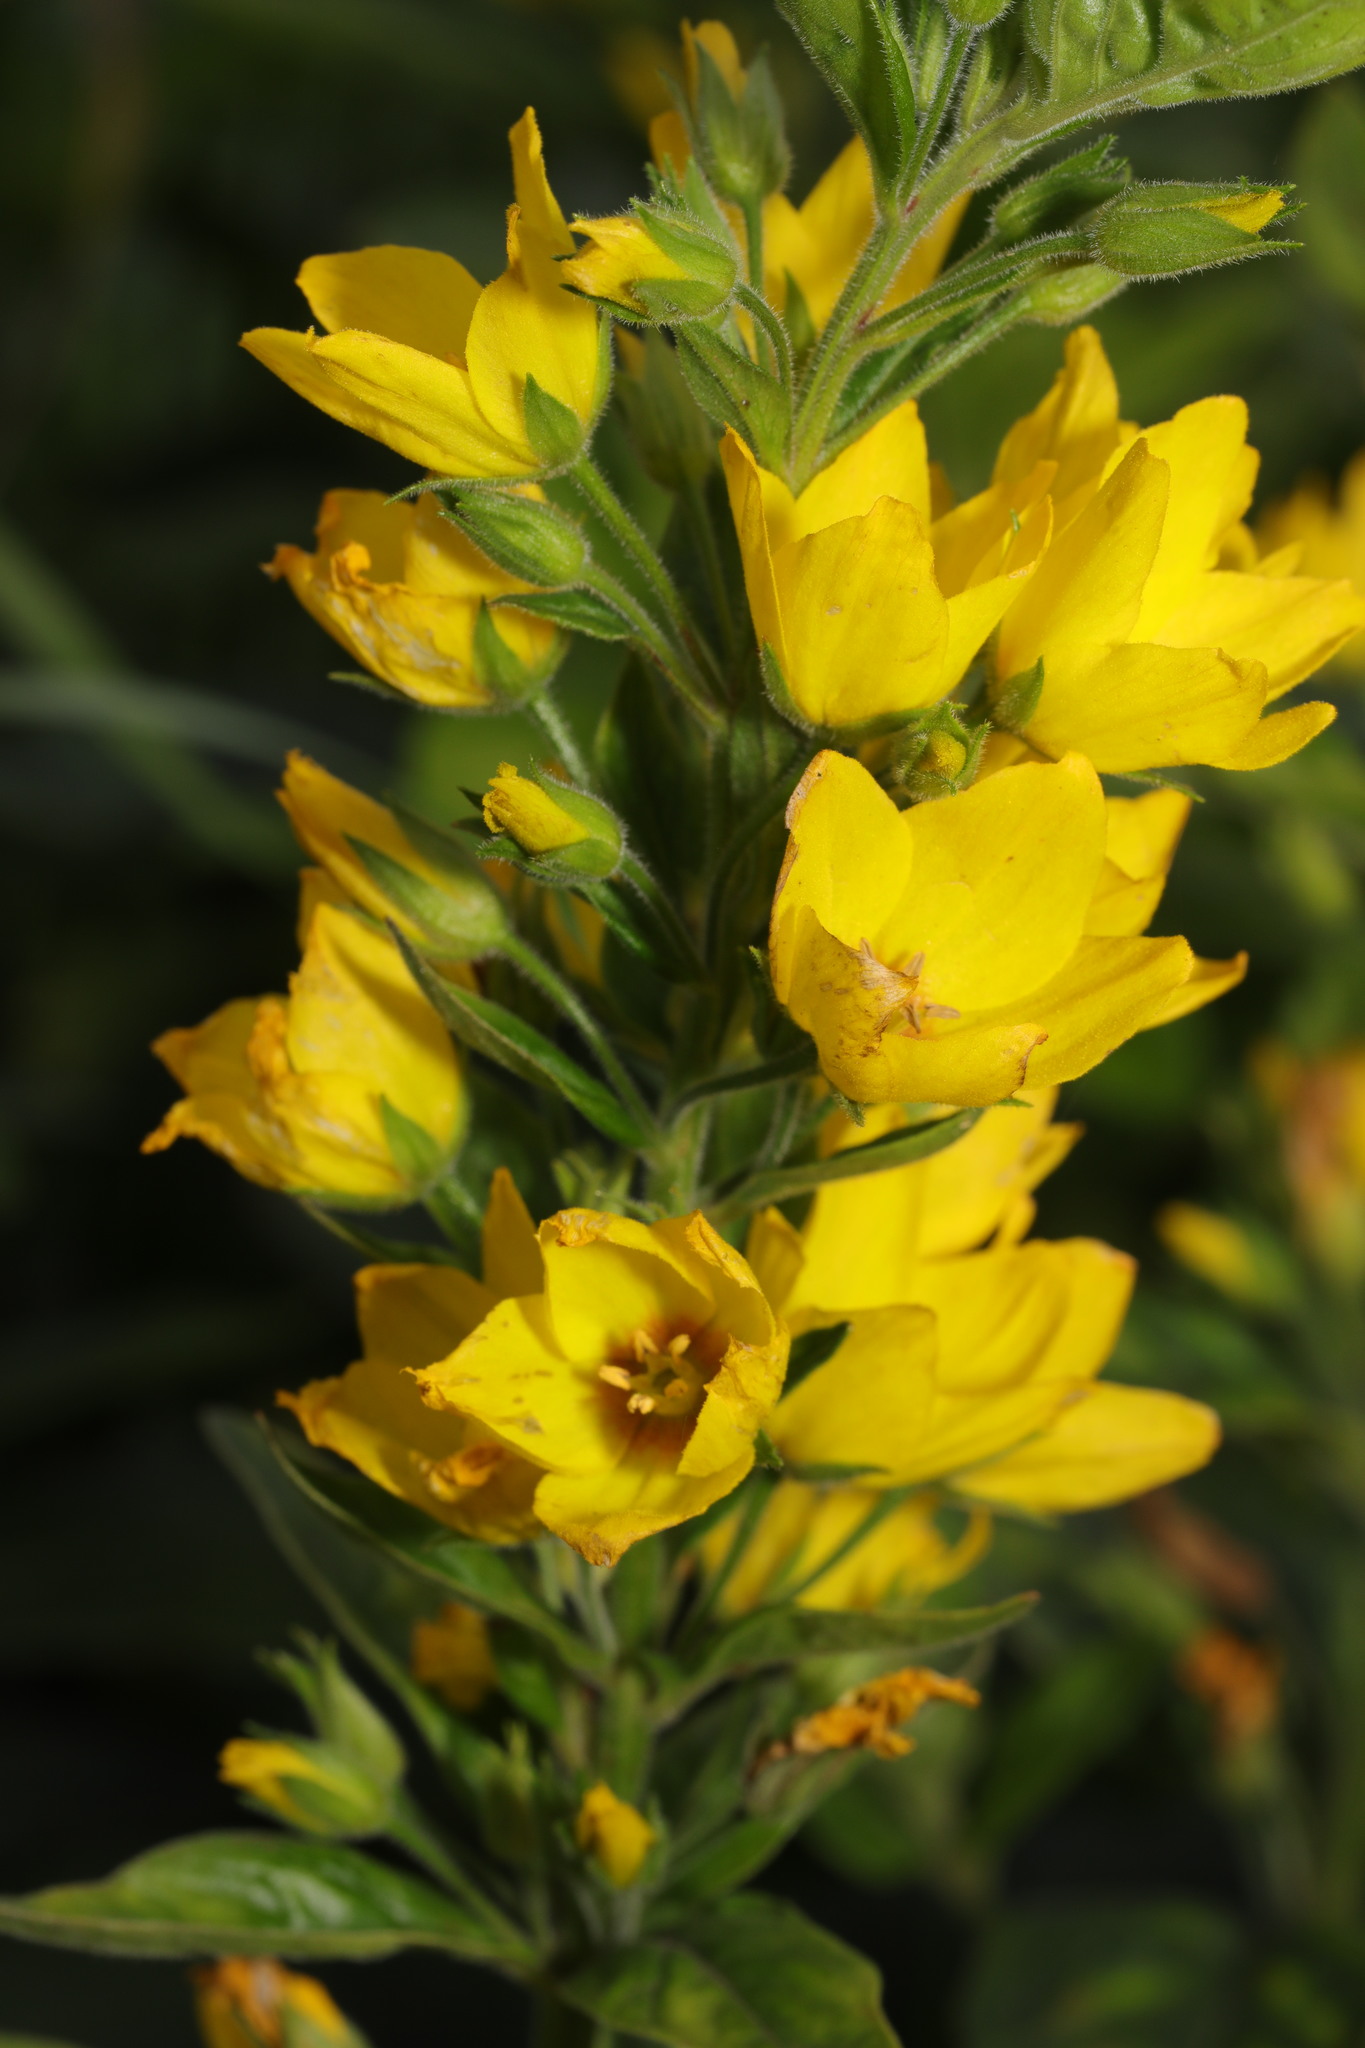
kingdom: Plantae
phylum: Tracheophyta
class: Magnoliopsida
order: Ericales
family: Primulaceae
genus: Lysimachia
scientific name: Lysimachia punctata
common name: Dotted loosestrife
